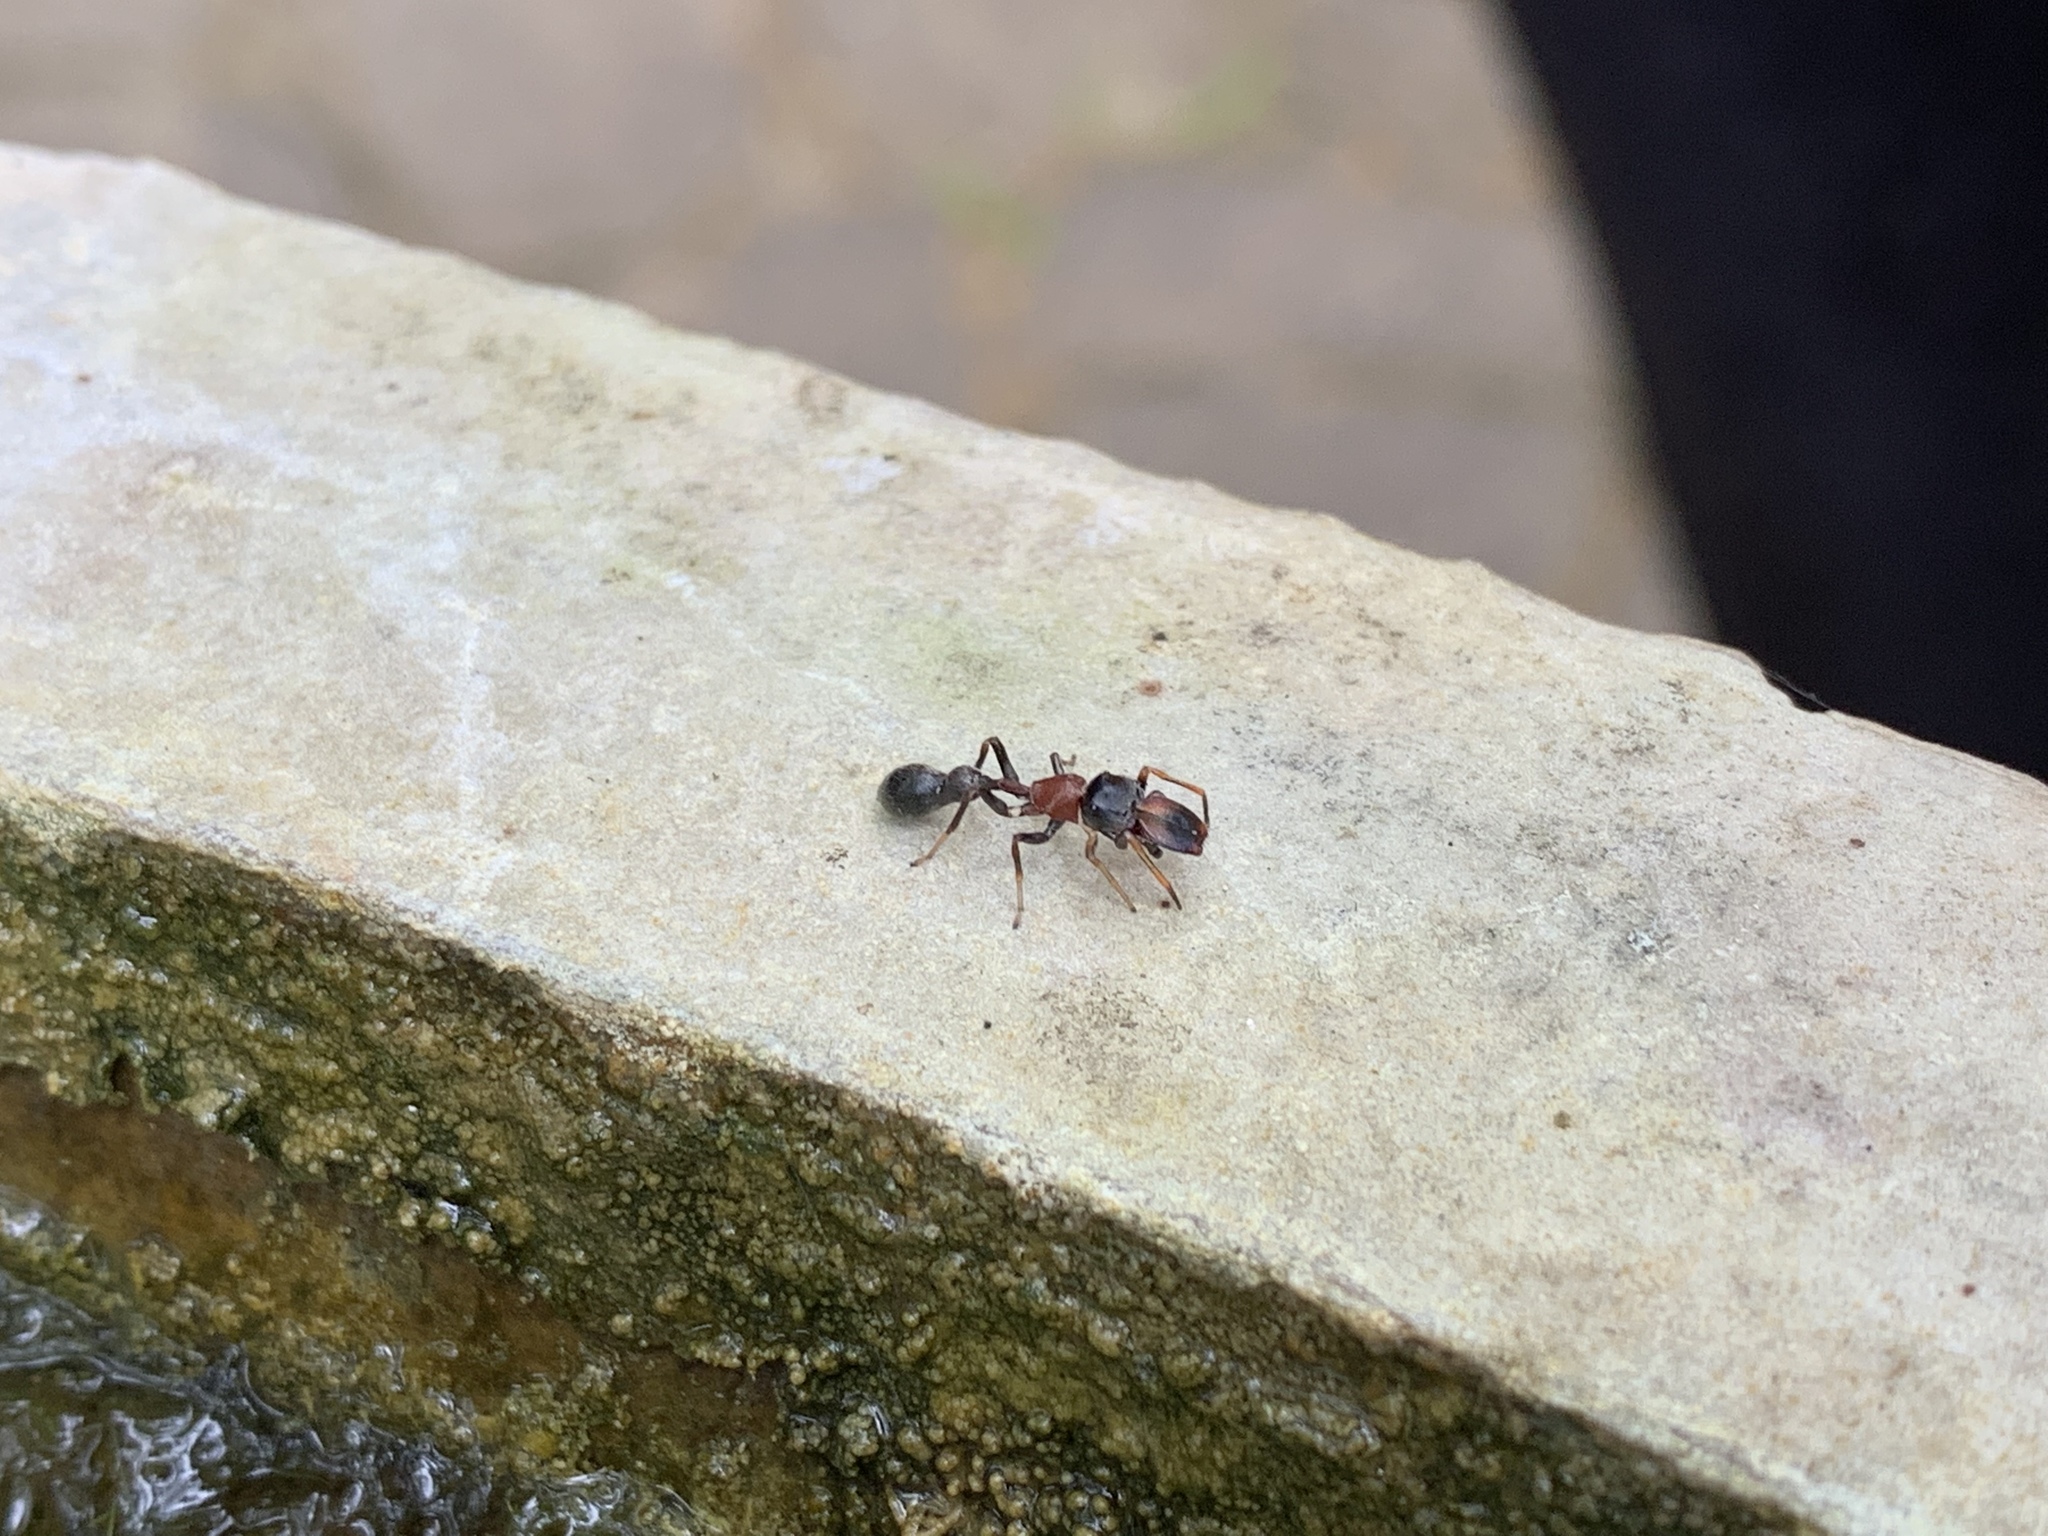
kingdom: Animalia
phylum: Arthropoda
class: Arachnida
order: Araneae
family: Salticidae
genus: Myrmarachne
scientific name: Myrmarachne melanocephala
